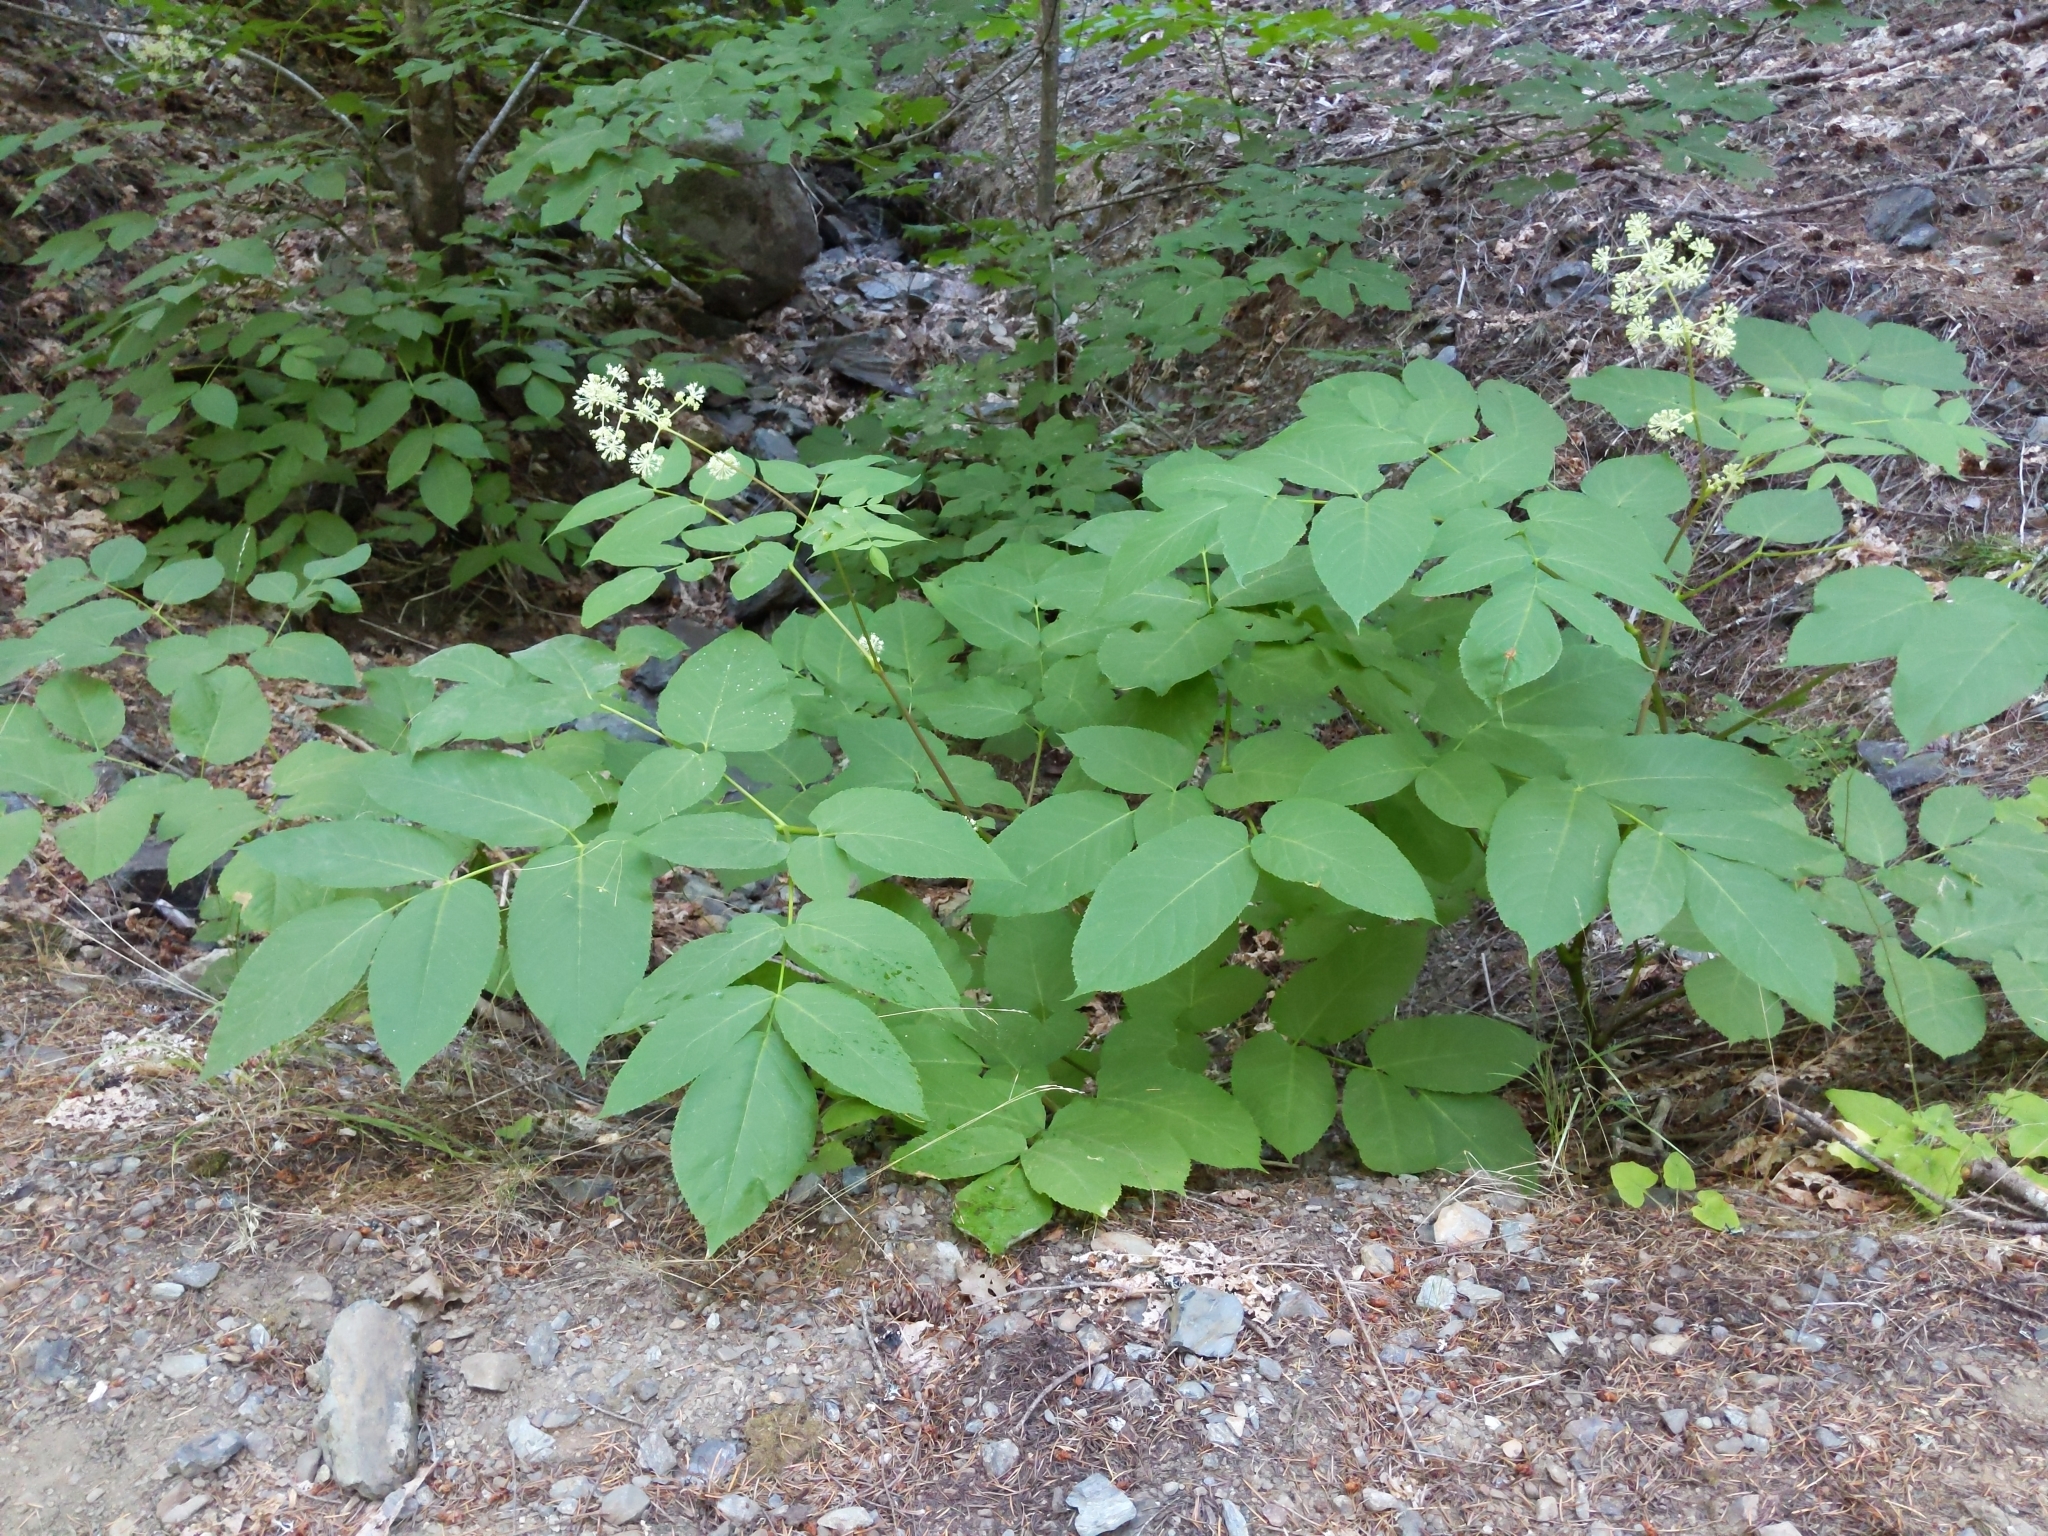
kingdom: Plantae
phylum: Tracheophyta
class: Magnoliopsida
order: Apiales
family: Araliaceae
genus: Aralia
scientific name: Aralia californica
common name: California-ginseng
